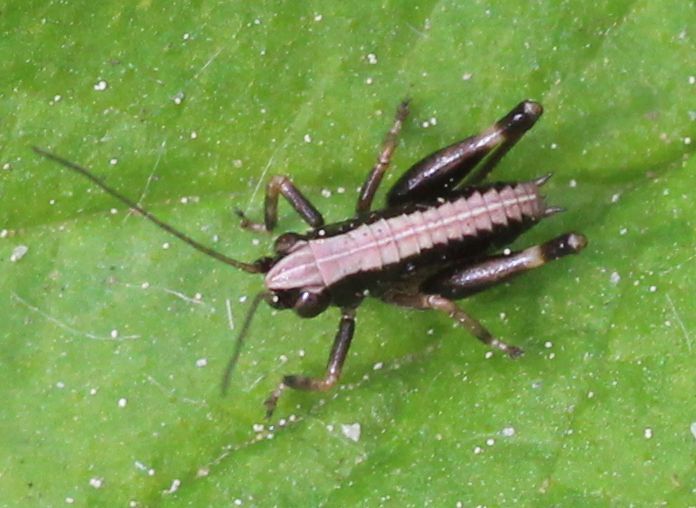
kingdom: Animalia
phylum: Arthropoda
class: Insecta
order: Orthoptera
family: Tettigoniidae
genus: Pholidoptera
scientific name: Pholidoptera griseoaptera
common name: Dark bush-cricket
